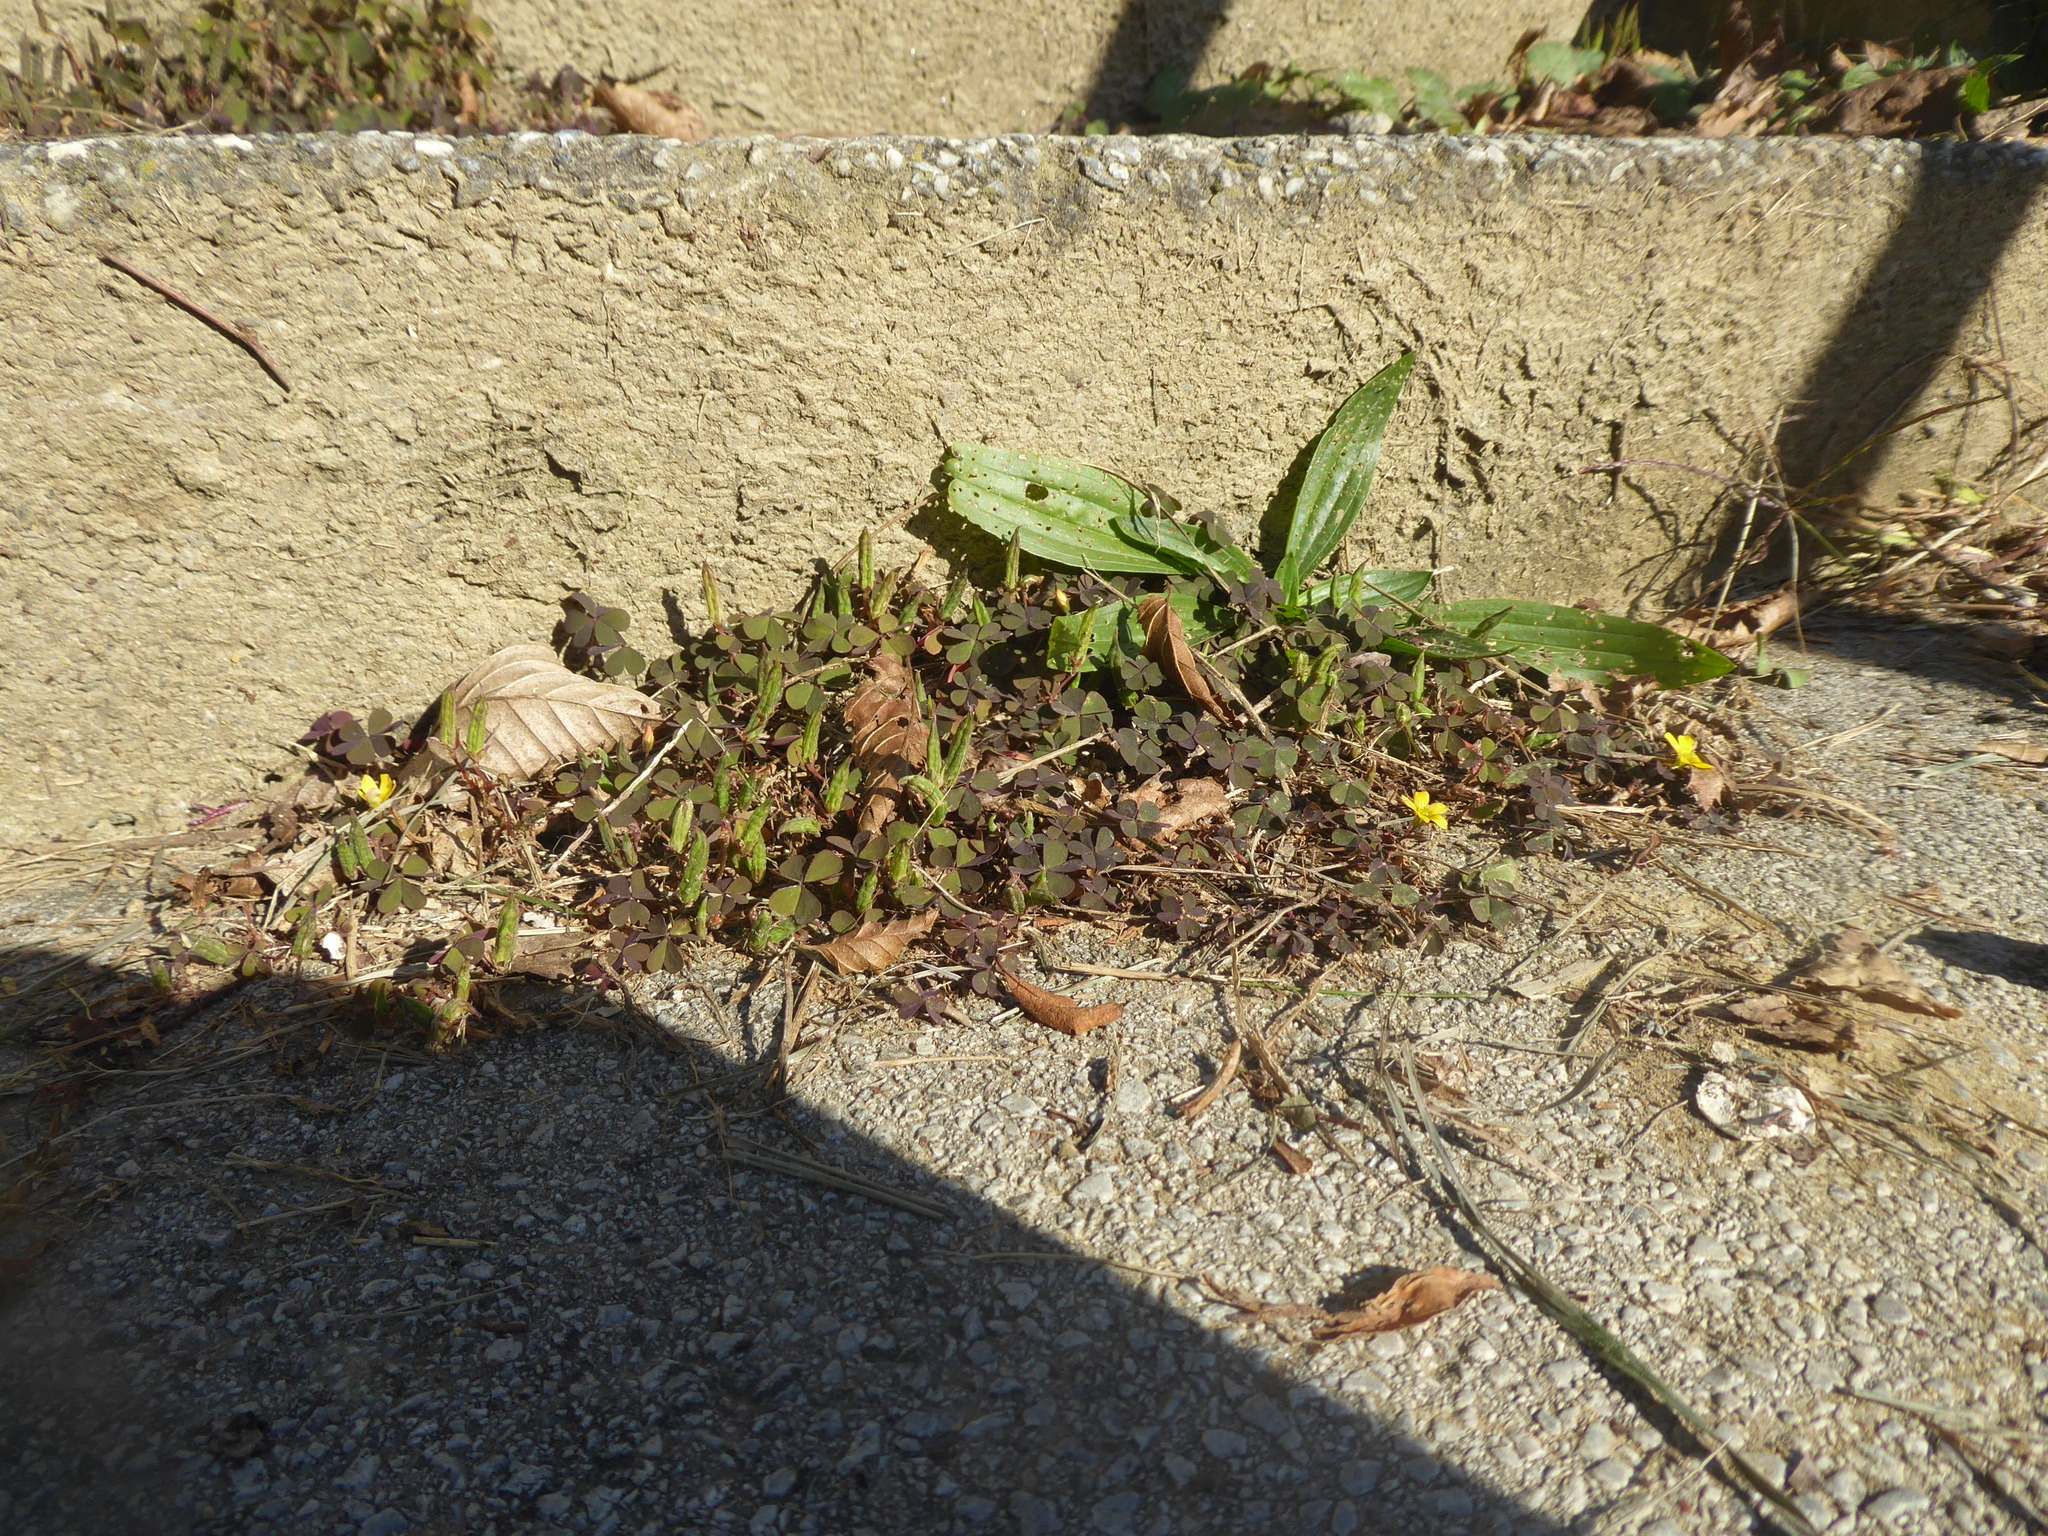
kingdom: Plantae
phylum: Tracheophyta
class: Magnoliopsida
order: Oxalidales
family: Oxalidaceae
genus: Oxalis
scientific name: Oxalis corniculata
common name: Procumbent yellow-sorrel
